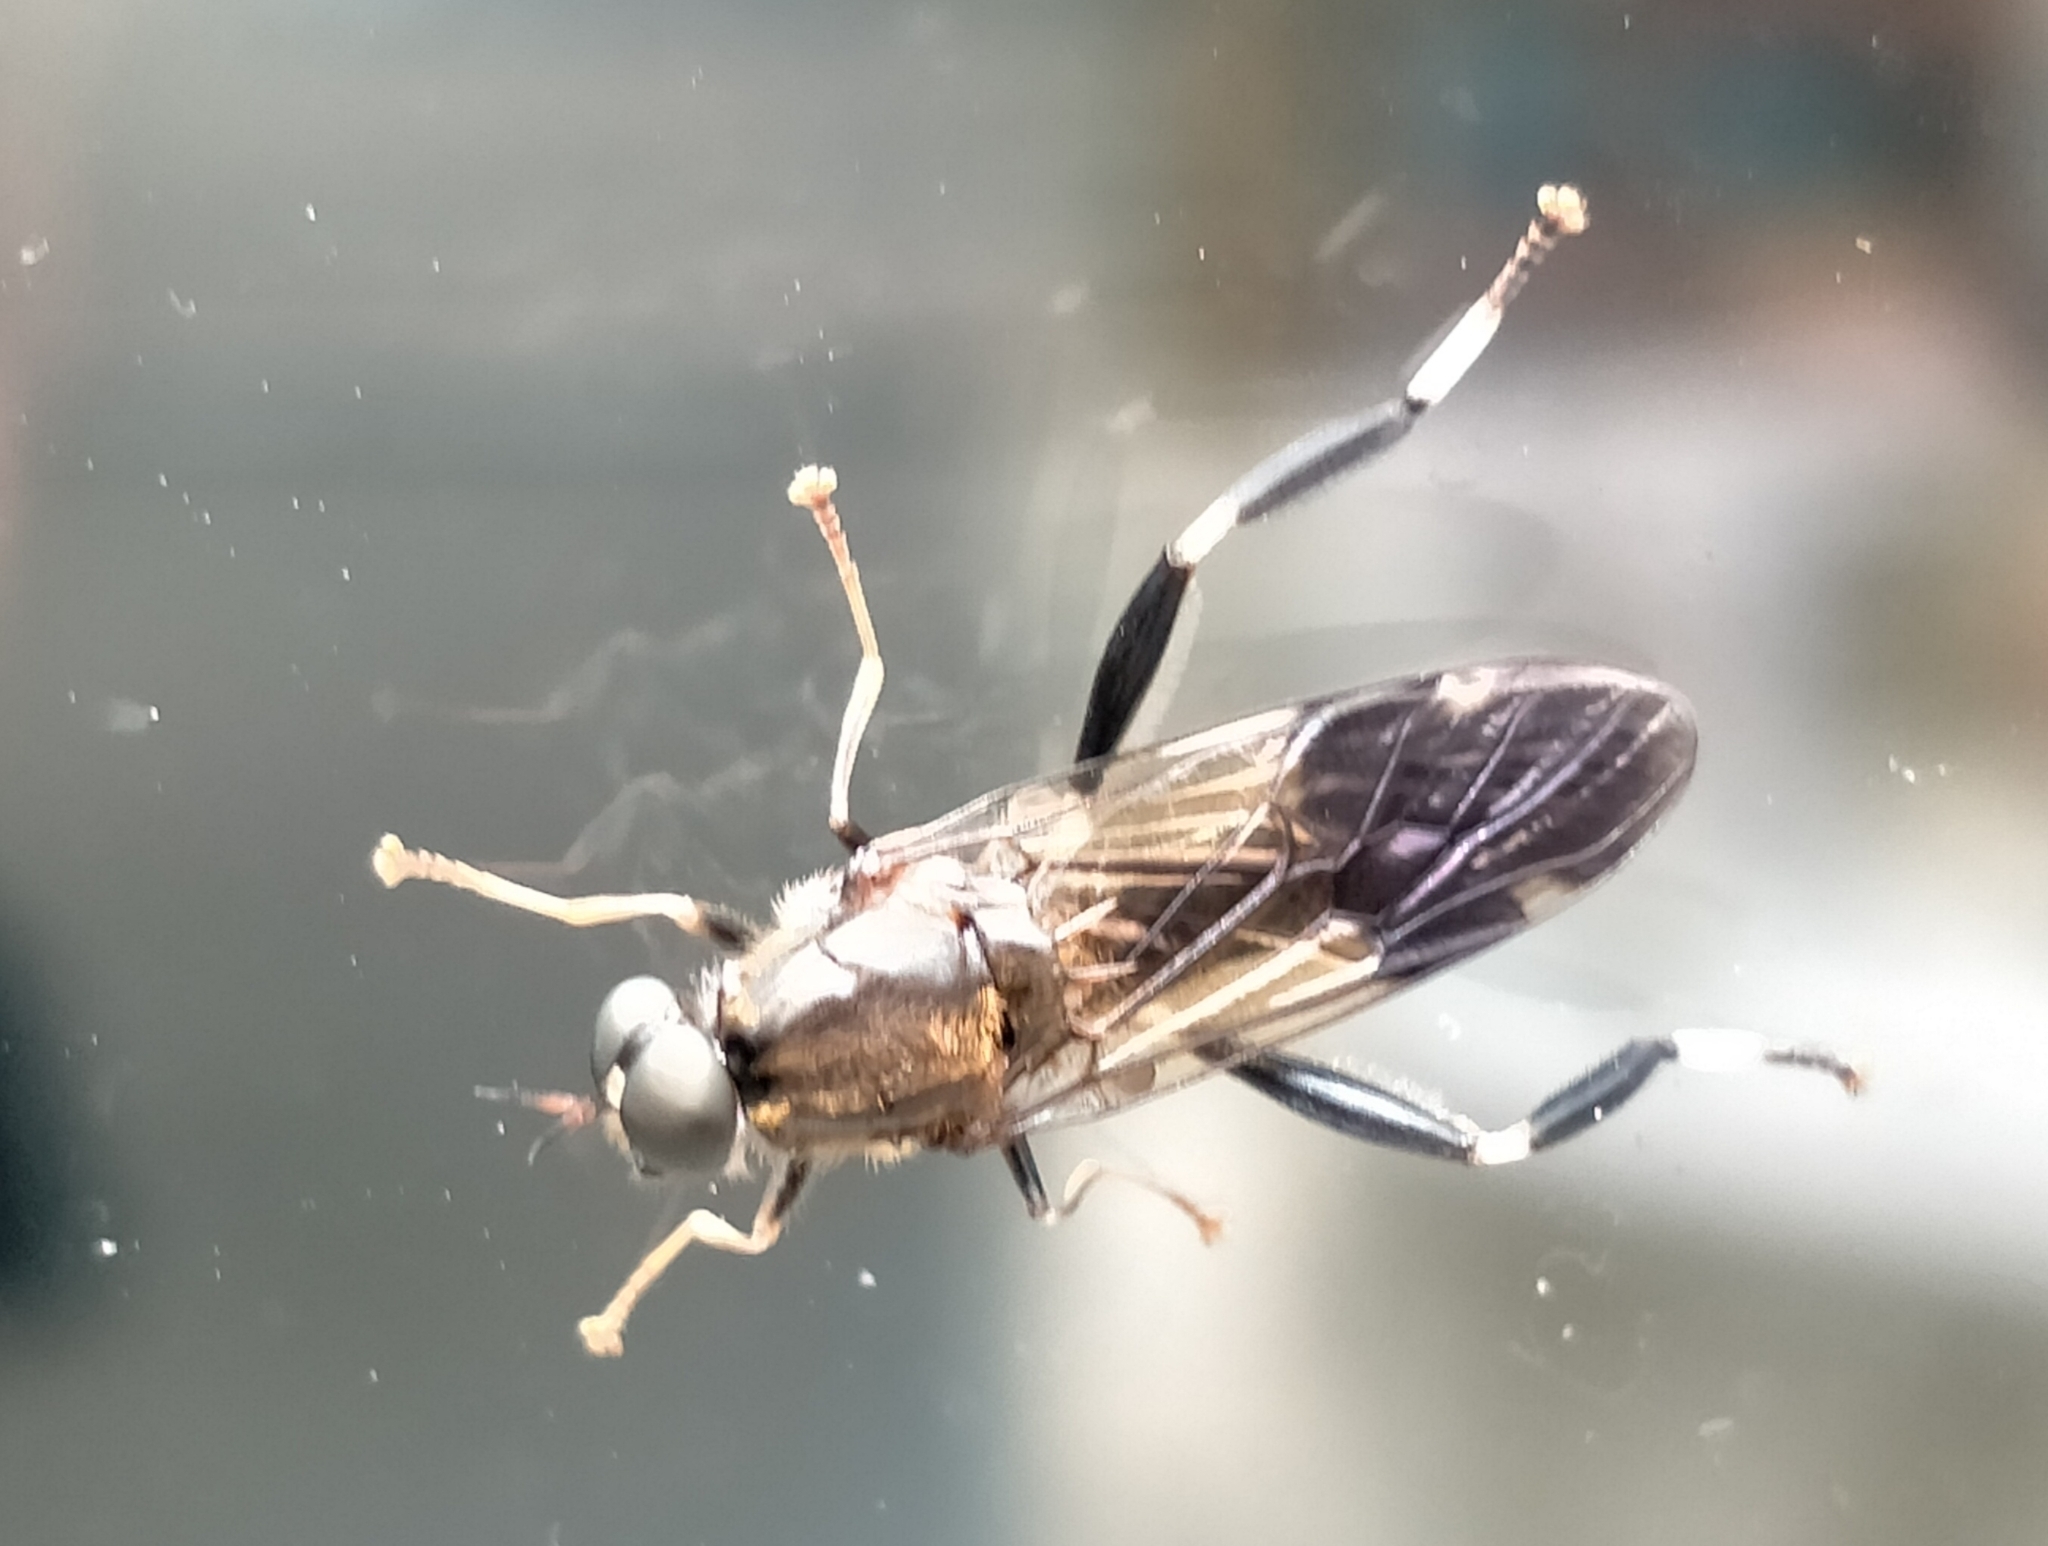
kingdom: Animalia
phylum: Arthropoda
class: Insecta
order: Diptera
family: Stratiomyidae
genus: Exaireta
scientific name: Exaireta spinigera
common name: Blue soldier fly
